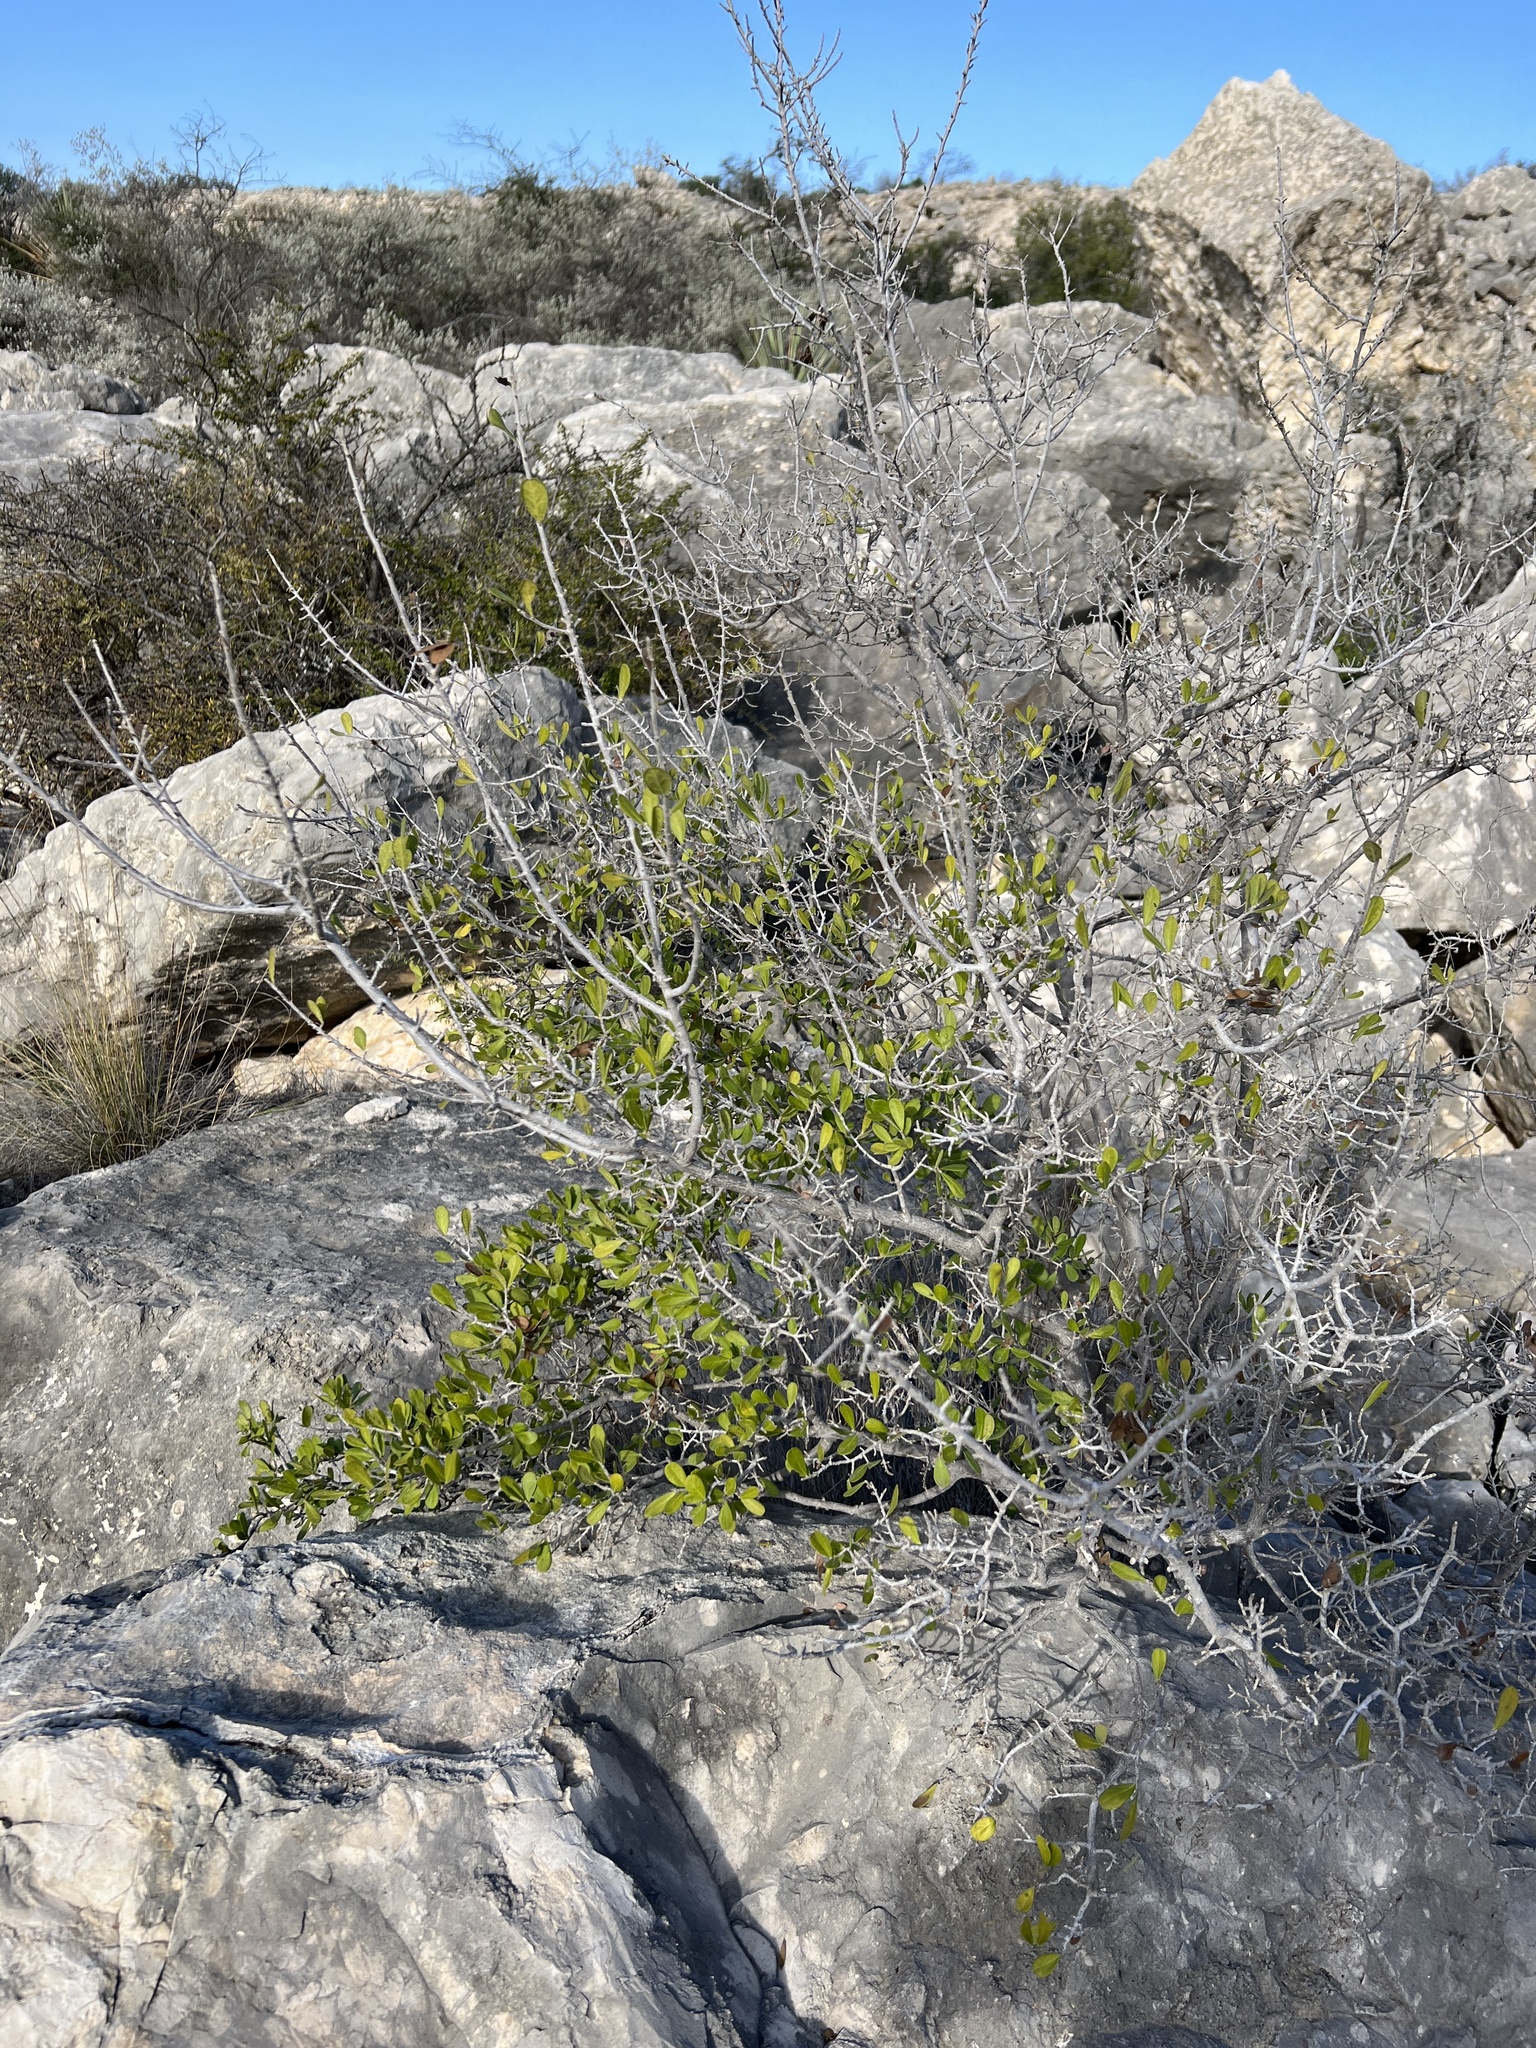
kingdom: Plantae
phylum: Tracheophyta
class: Magnoliopsida
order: Ericales
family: Ebenaceae
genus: Diospyros
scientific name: Diospyros texana
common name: Texas persimmon
